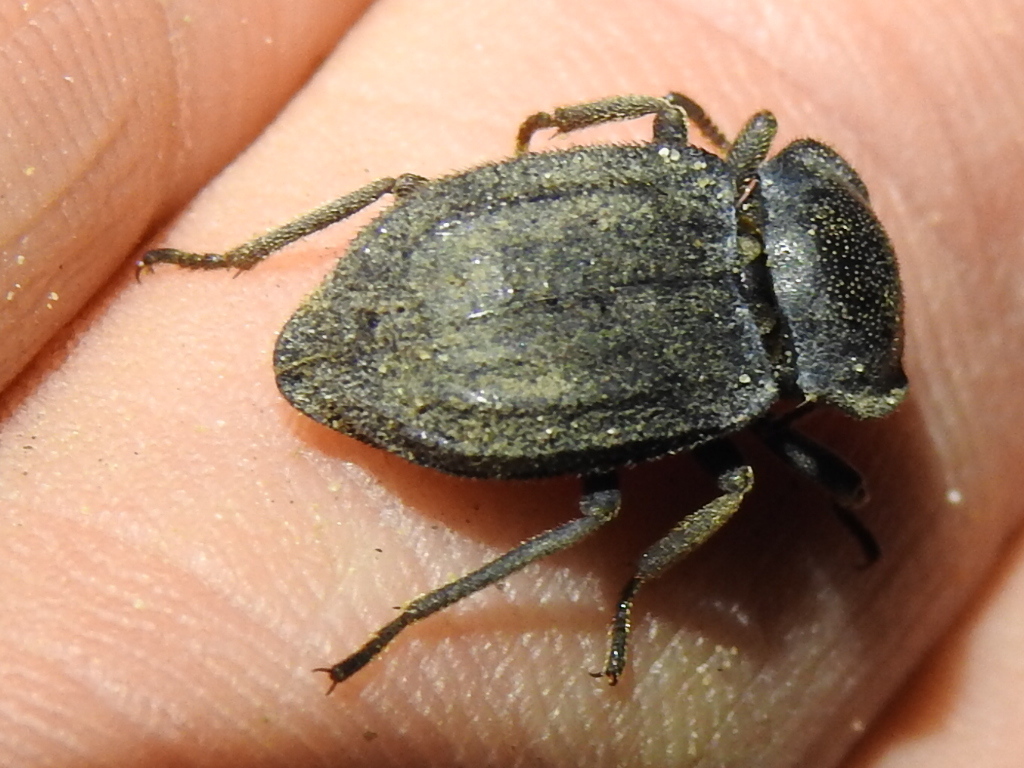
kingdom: Animalia
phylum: Arthropoda
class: Insecta
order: Coleoptera
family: Tenebrionidae
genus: Stenomorpha
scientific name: Stenomorpha horrida
